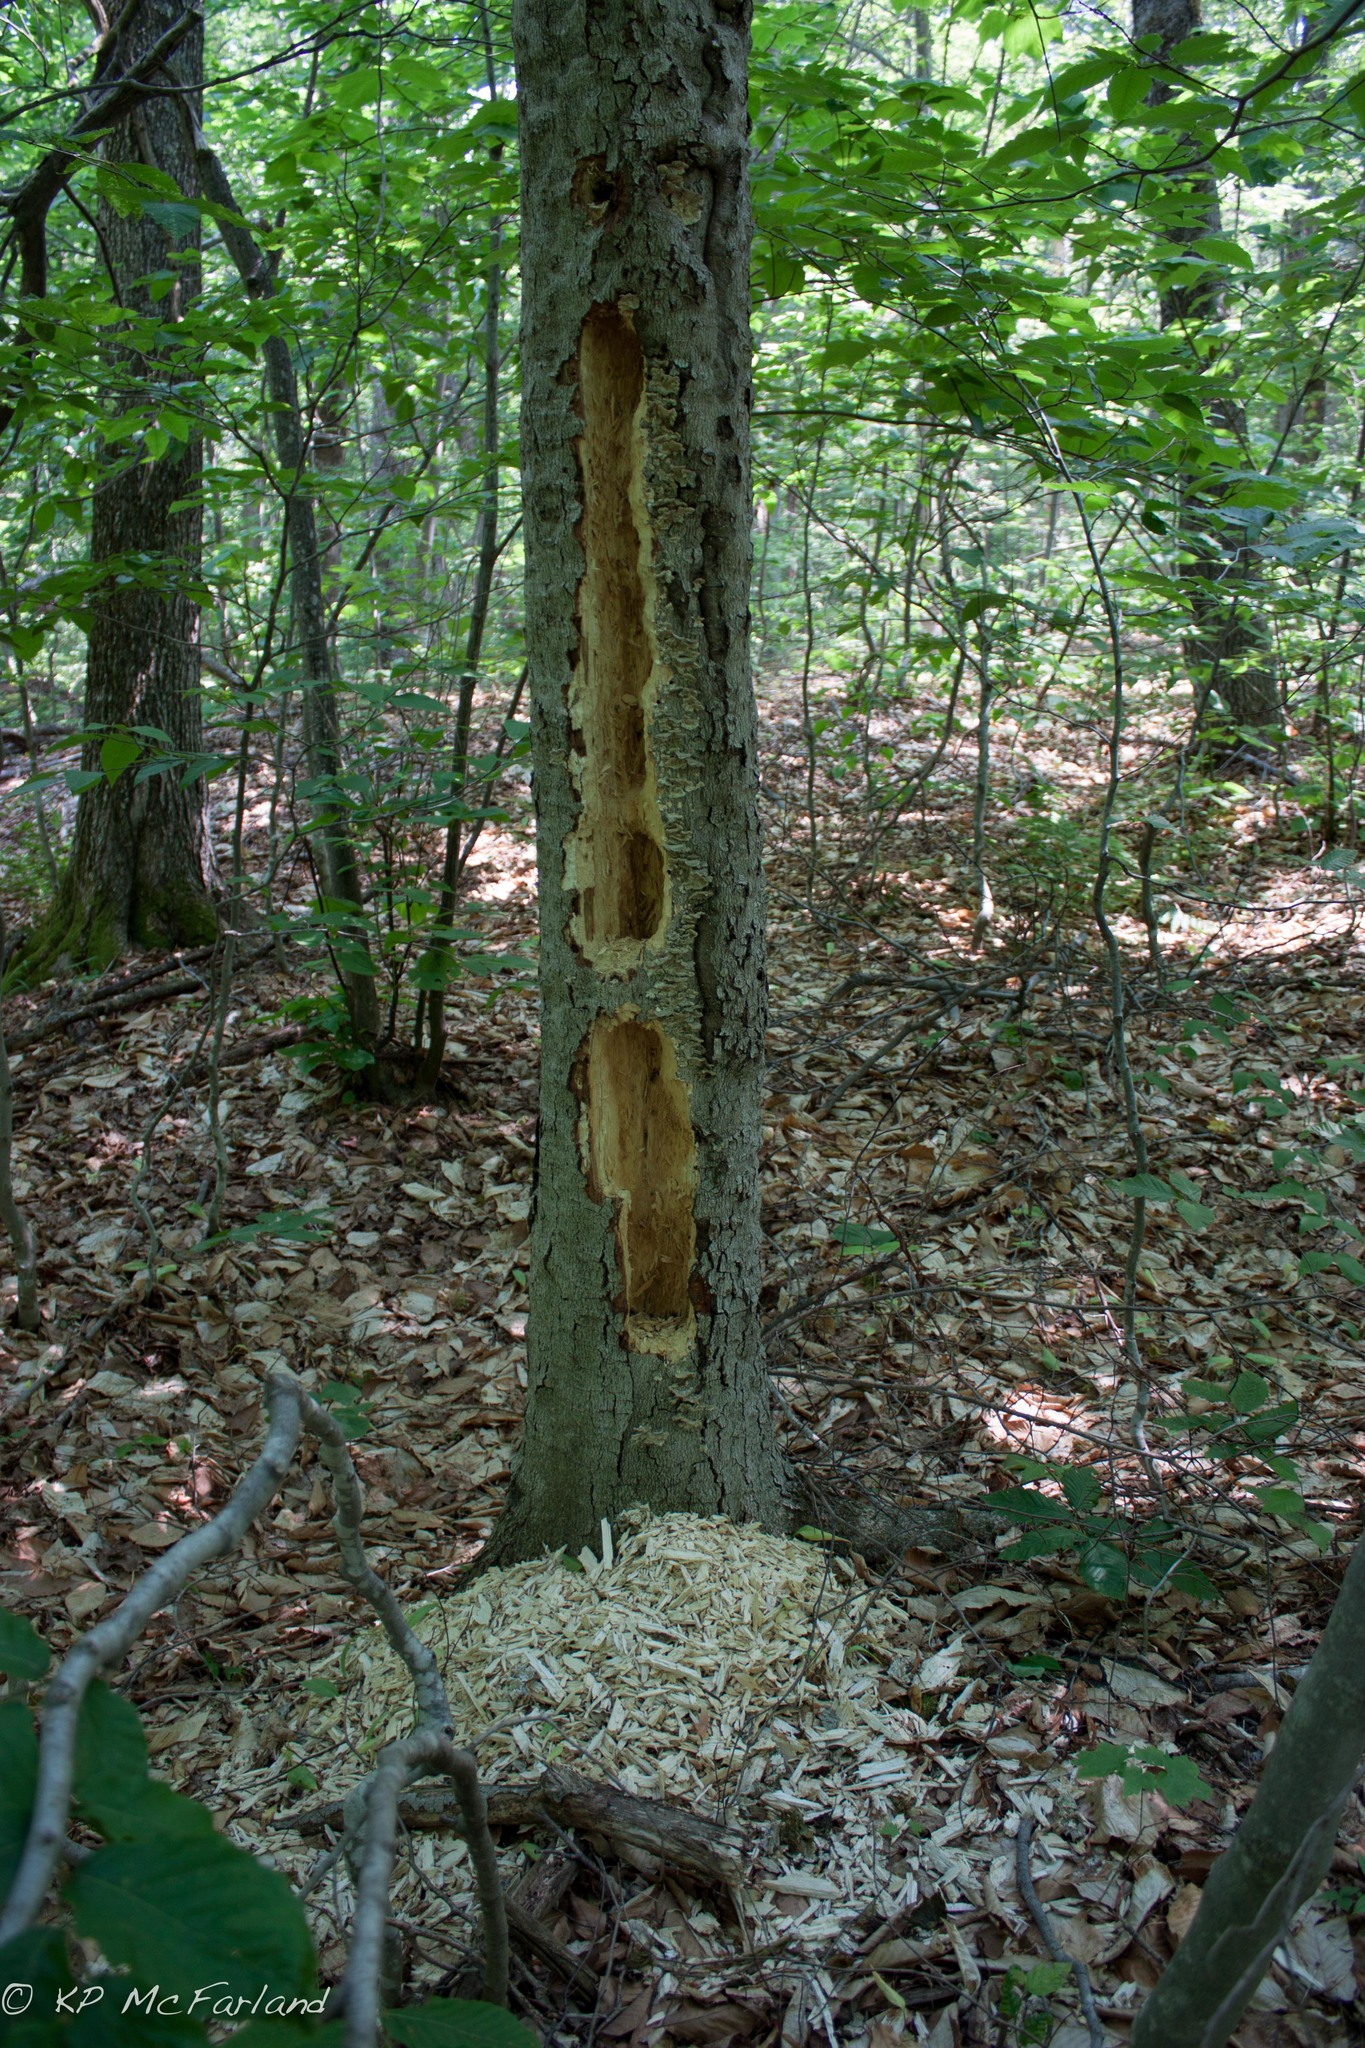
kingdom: Animalia
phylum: Chordata
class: Aves
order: Piciformes
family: Picidae
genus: Dryocopus
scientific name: Dryocopus pileatus
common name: Pileated woodpecker
